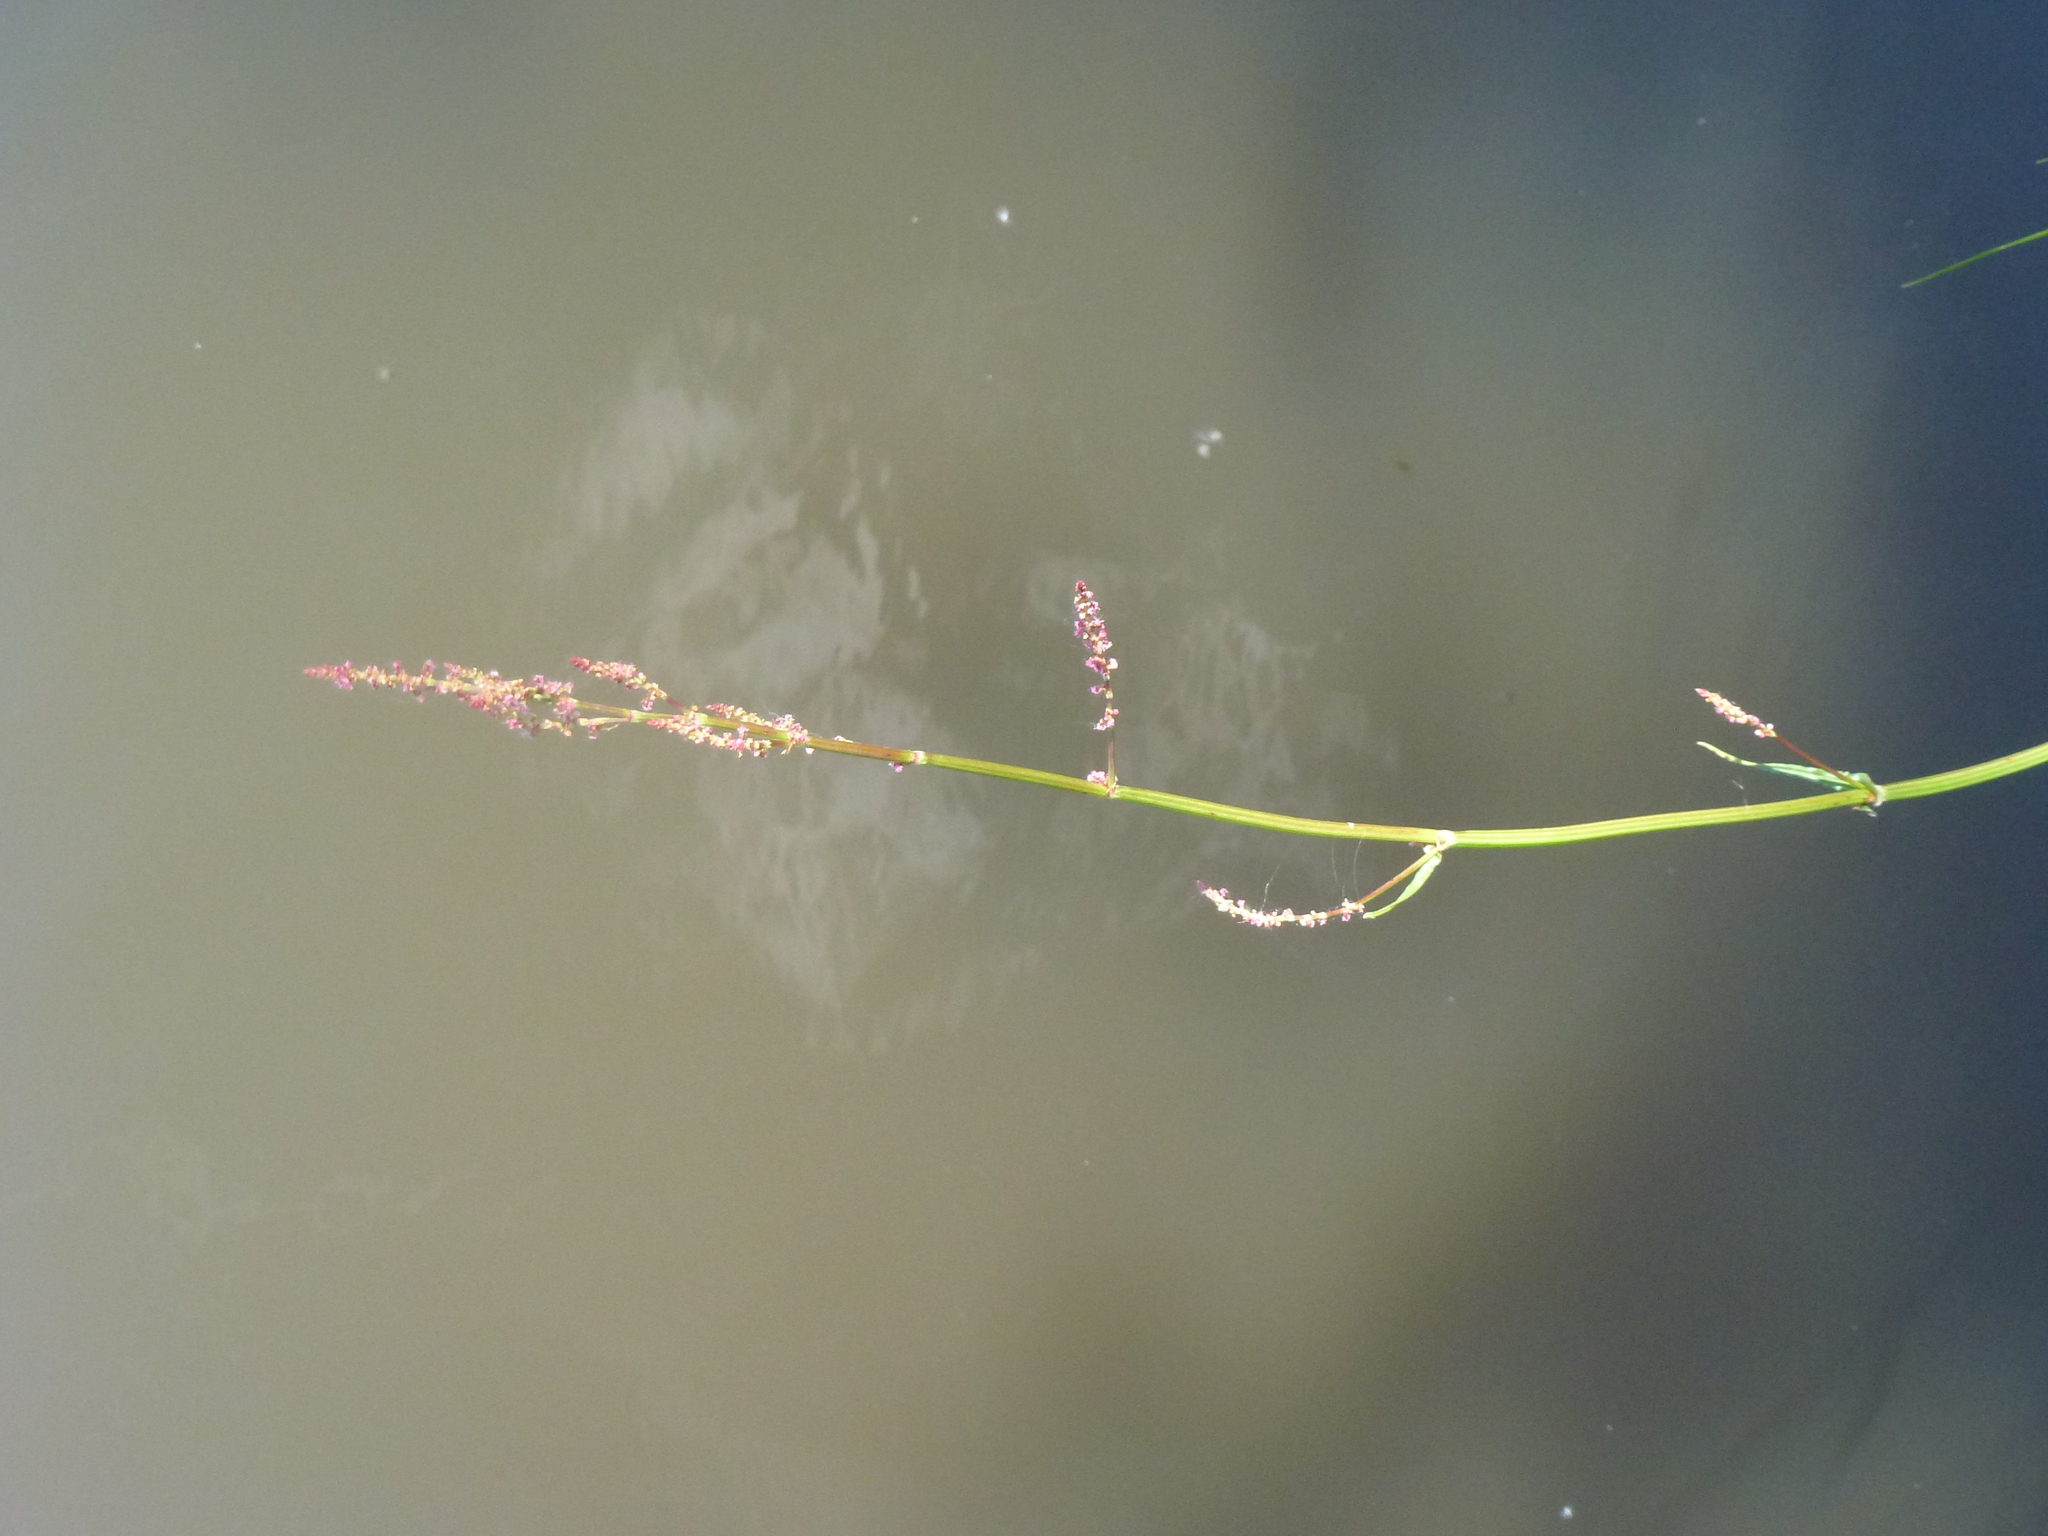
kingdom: Plantae
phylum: Tracheophyta
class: Magnoliopsida
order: Caryophyllales
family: Polygonaceae
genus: Rumex
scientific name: Rumex acetosa
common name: Garden sorrel
